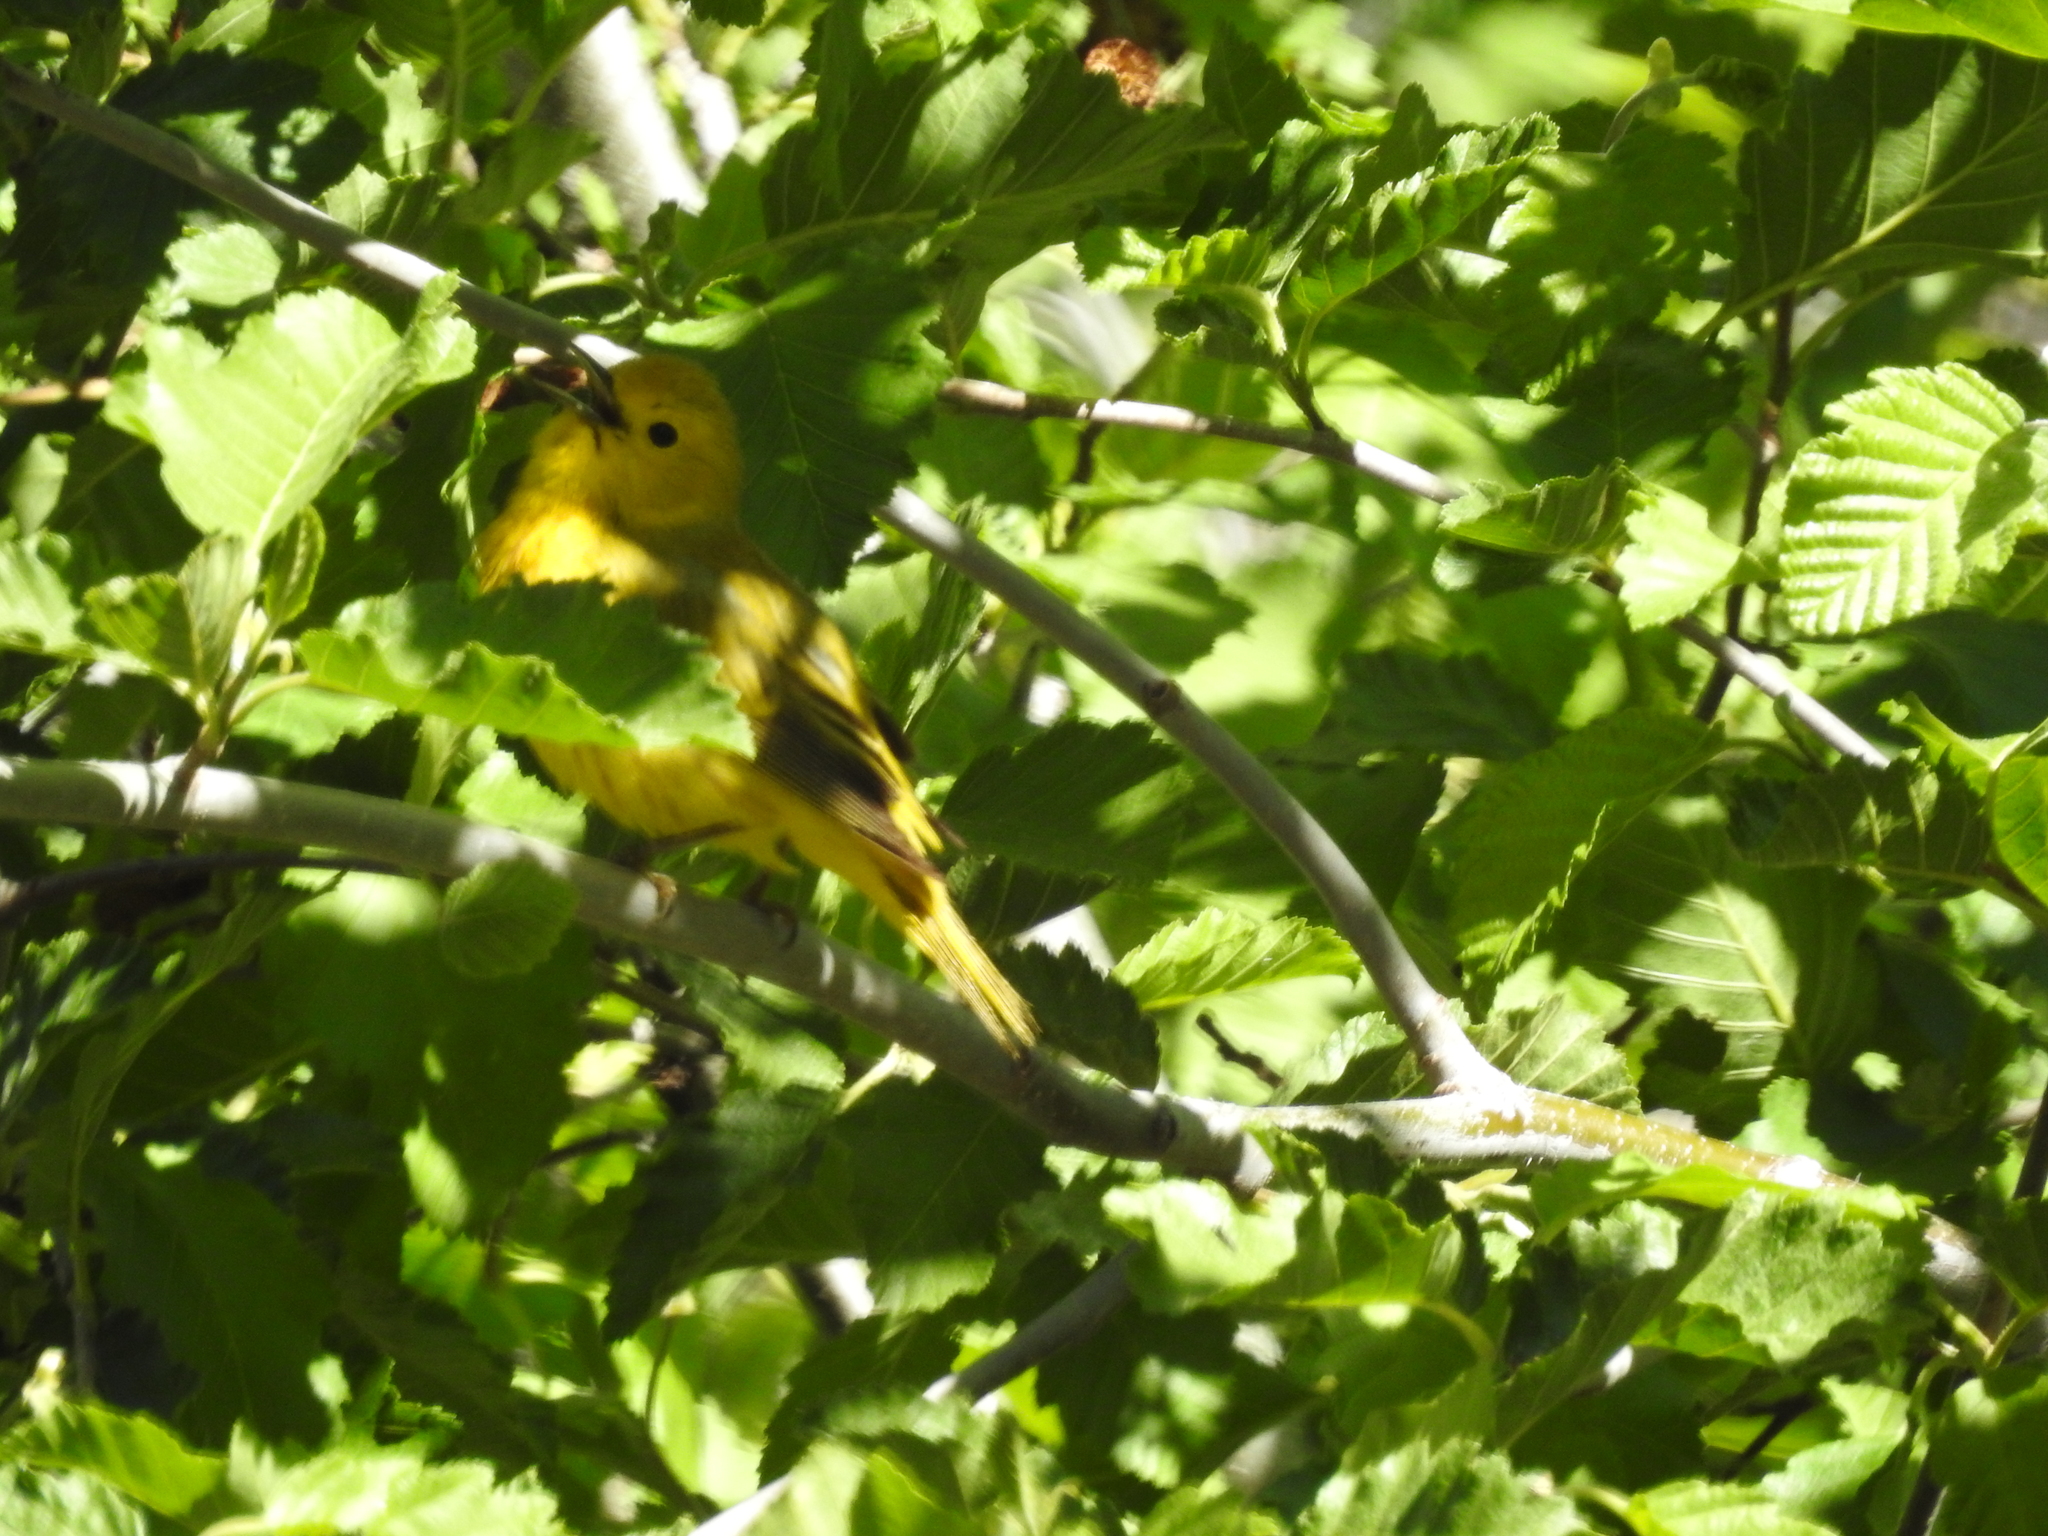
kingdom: Animalia
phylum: Chordata
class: Aves
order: Passeriformes
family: Parulidae
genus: Setophaga
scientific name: Setophaga petechia
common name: Yellow warbler
